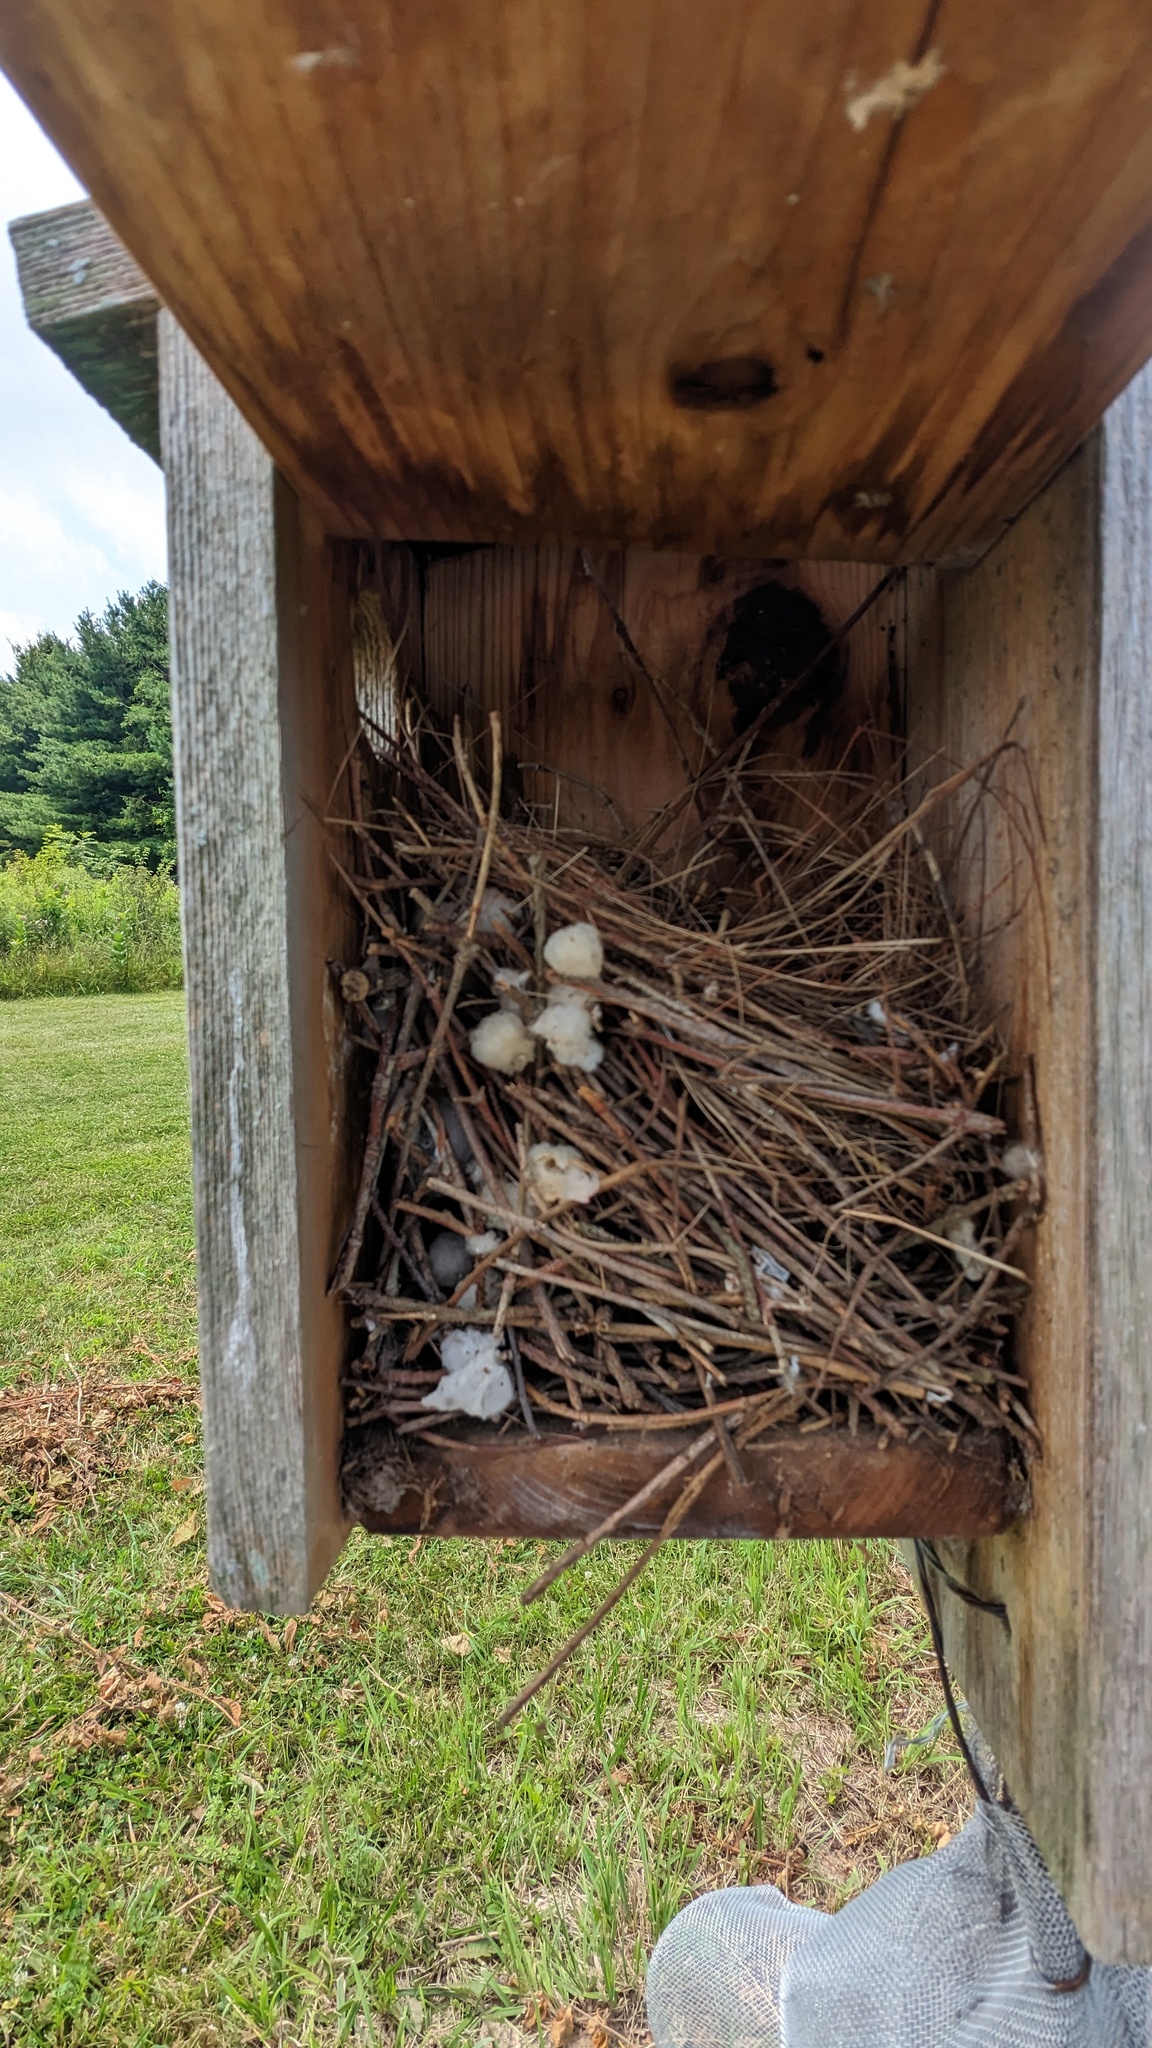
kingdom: Animalia
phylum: Chordata
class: Aves
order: Passeriformes
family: Troglodytidae
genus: Troglodytes
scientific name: Troglodytes aedon
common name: House wren
